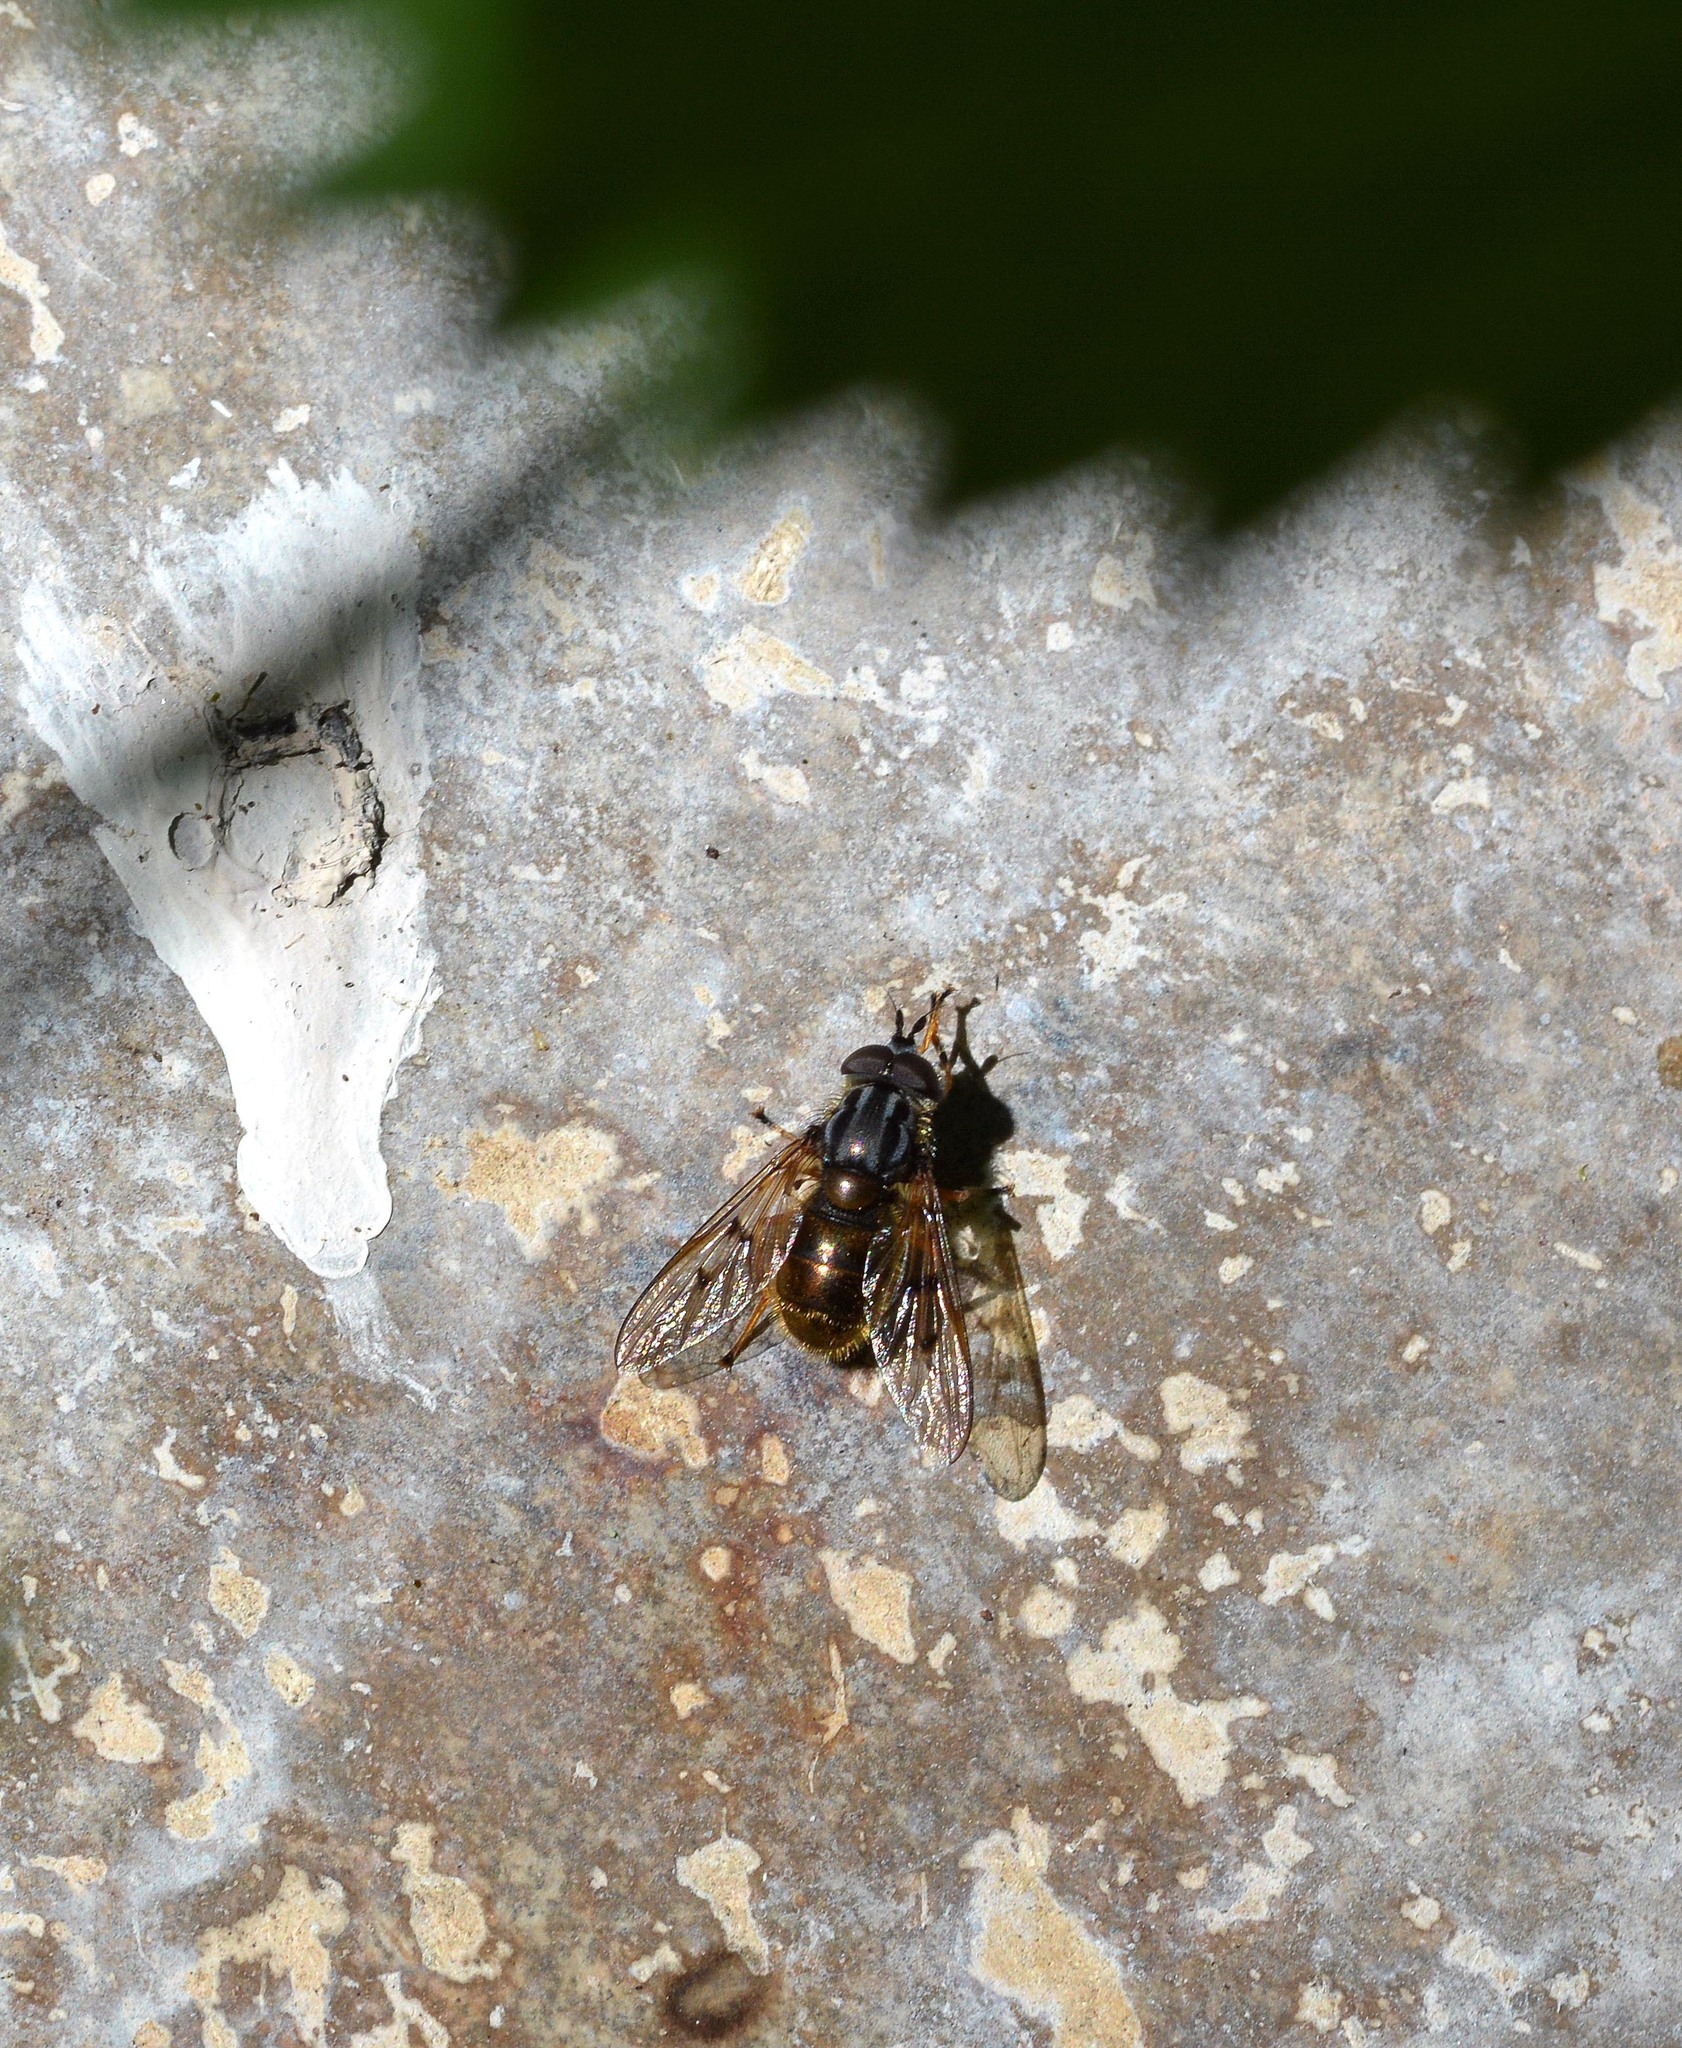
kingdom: Animalia
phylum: Arthropoda
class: Insecta
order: Diptera
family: Syrphidae
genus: Ferdinandea
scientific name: Ferdinandea cuprea
